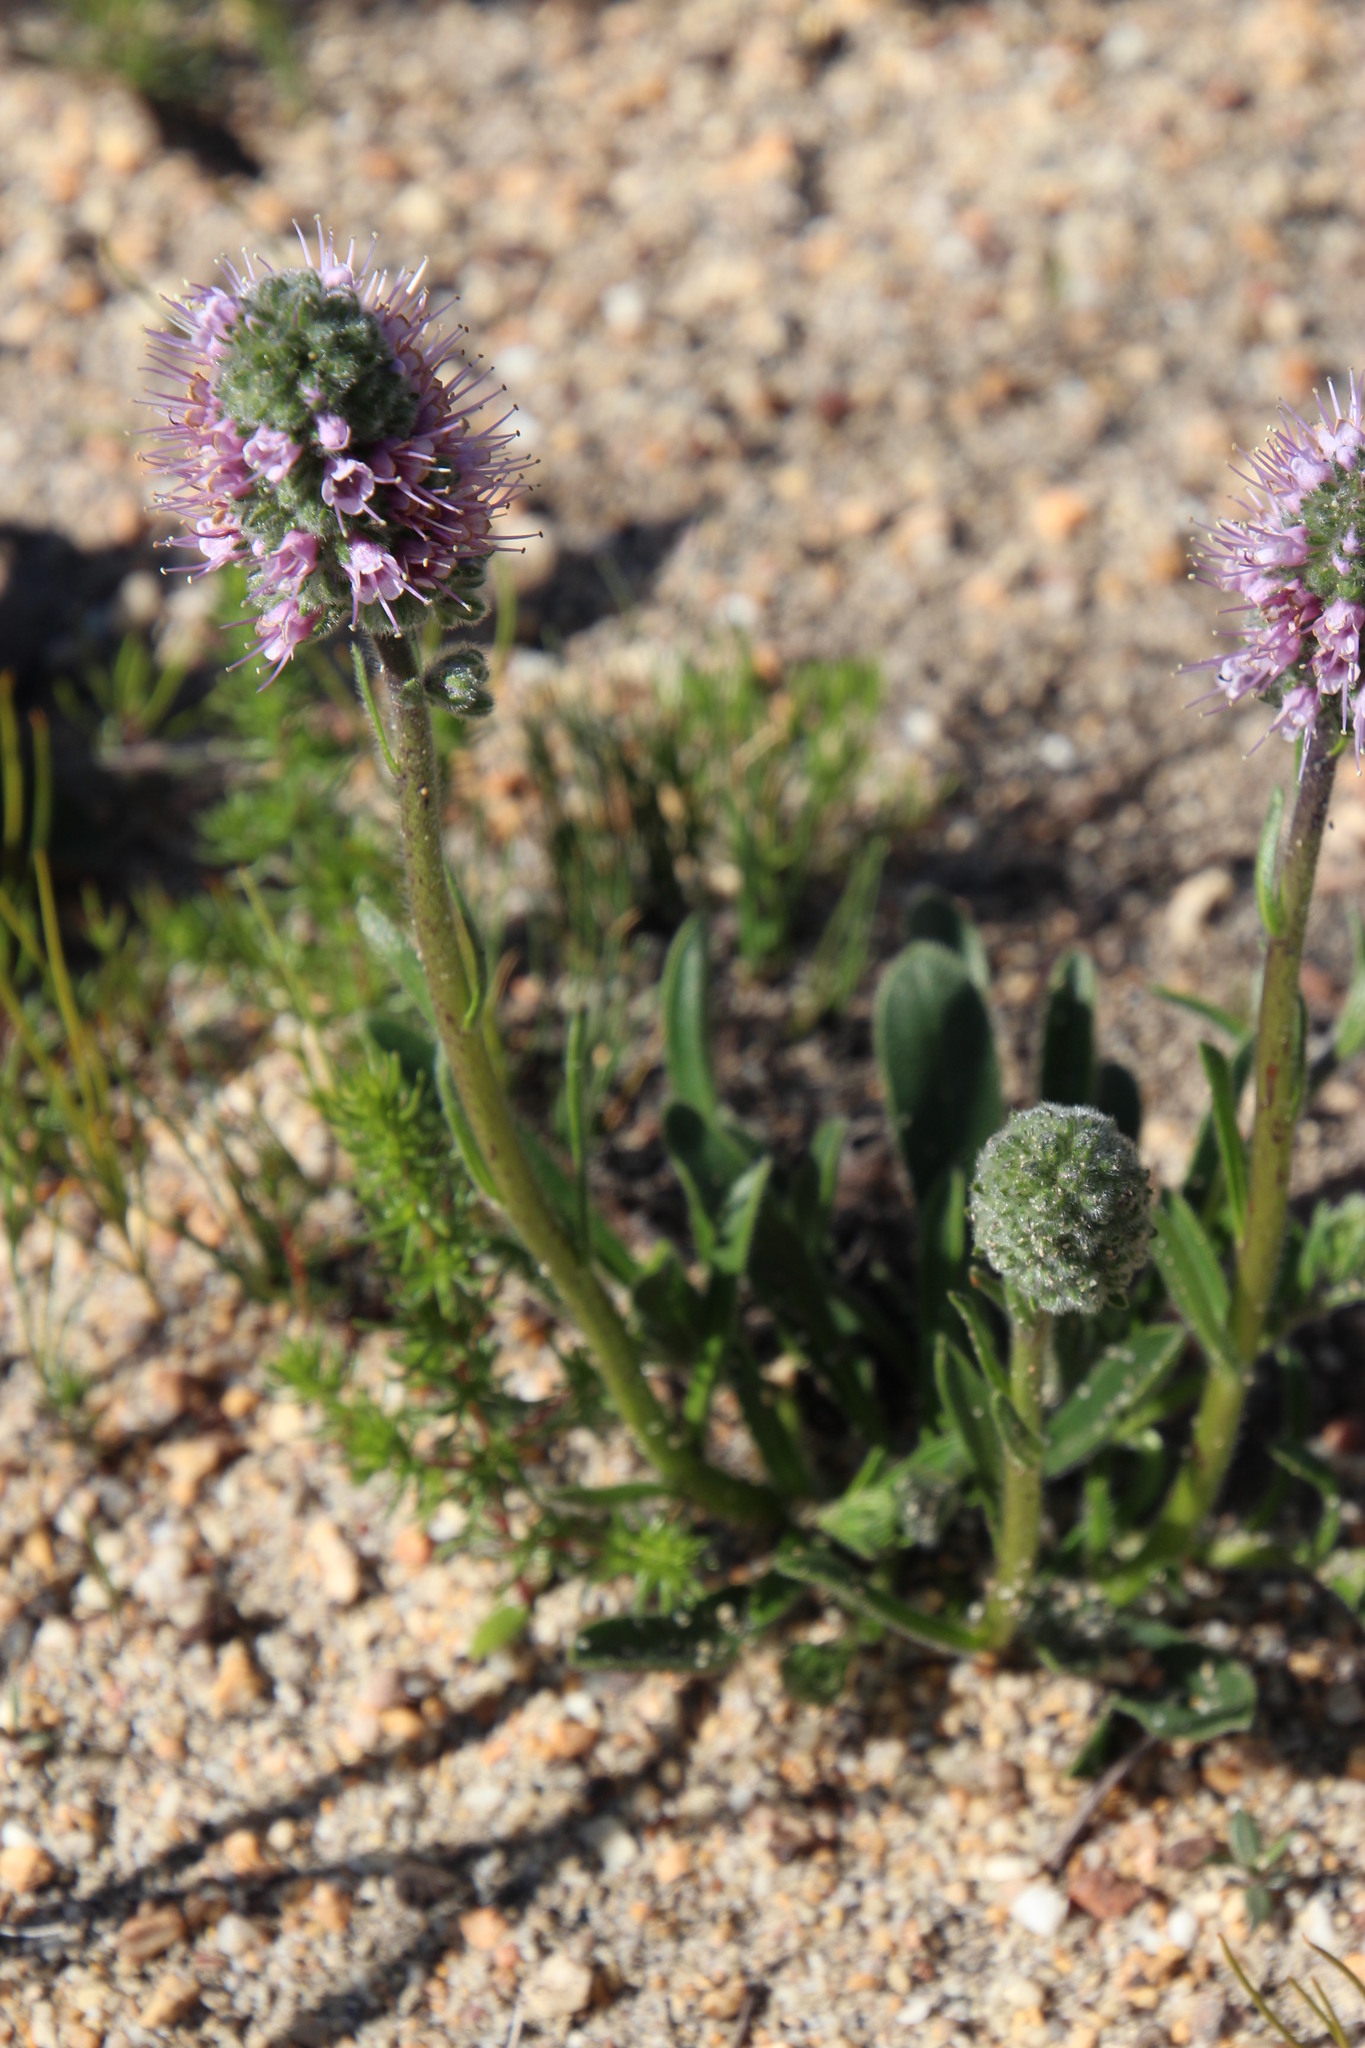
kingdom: Plantae
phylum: Tracheophyta
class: Magnoliopsida
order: Boraginales
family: Boraginaceae
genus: Lobostemon
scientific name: Lobostemon ecklonianus
